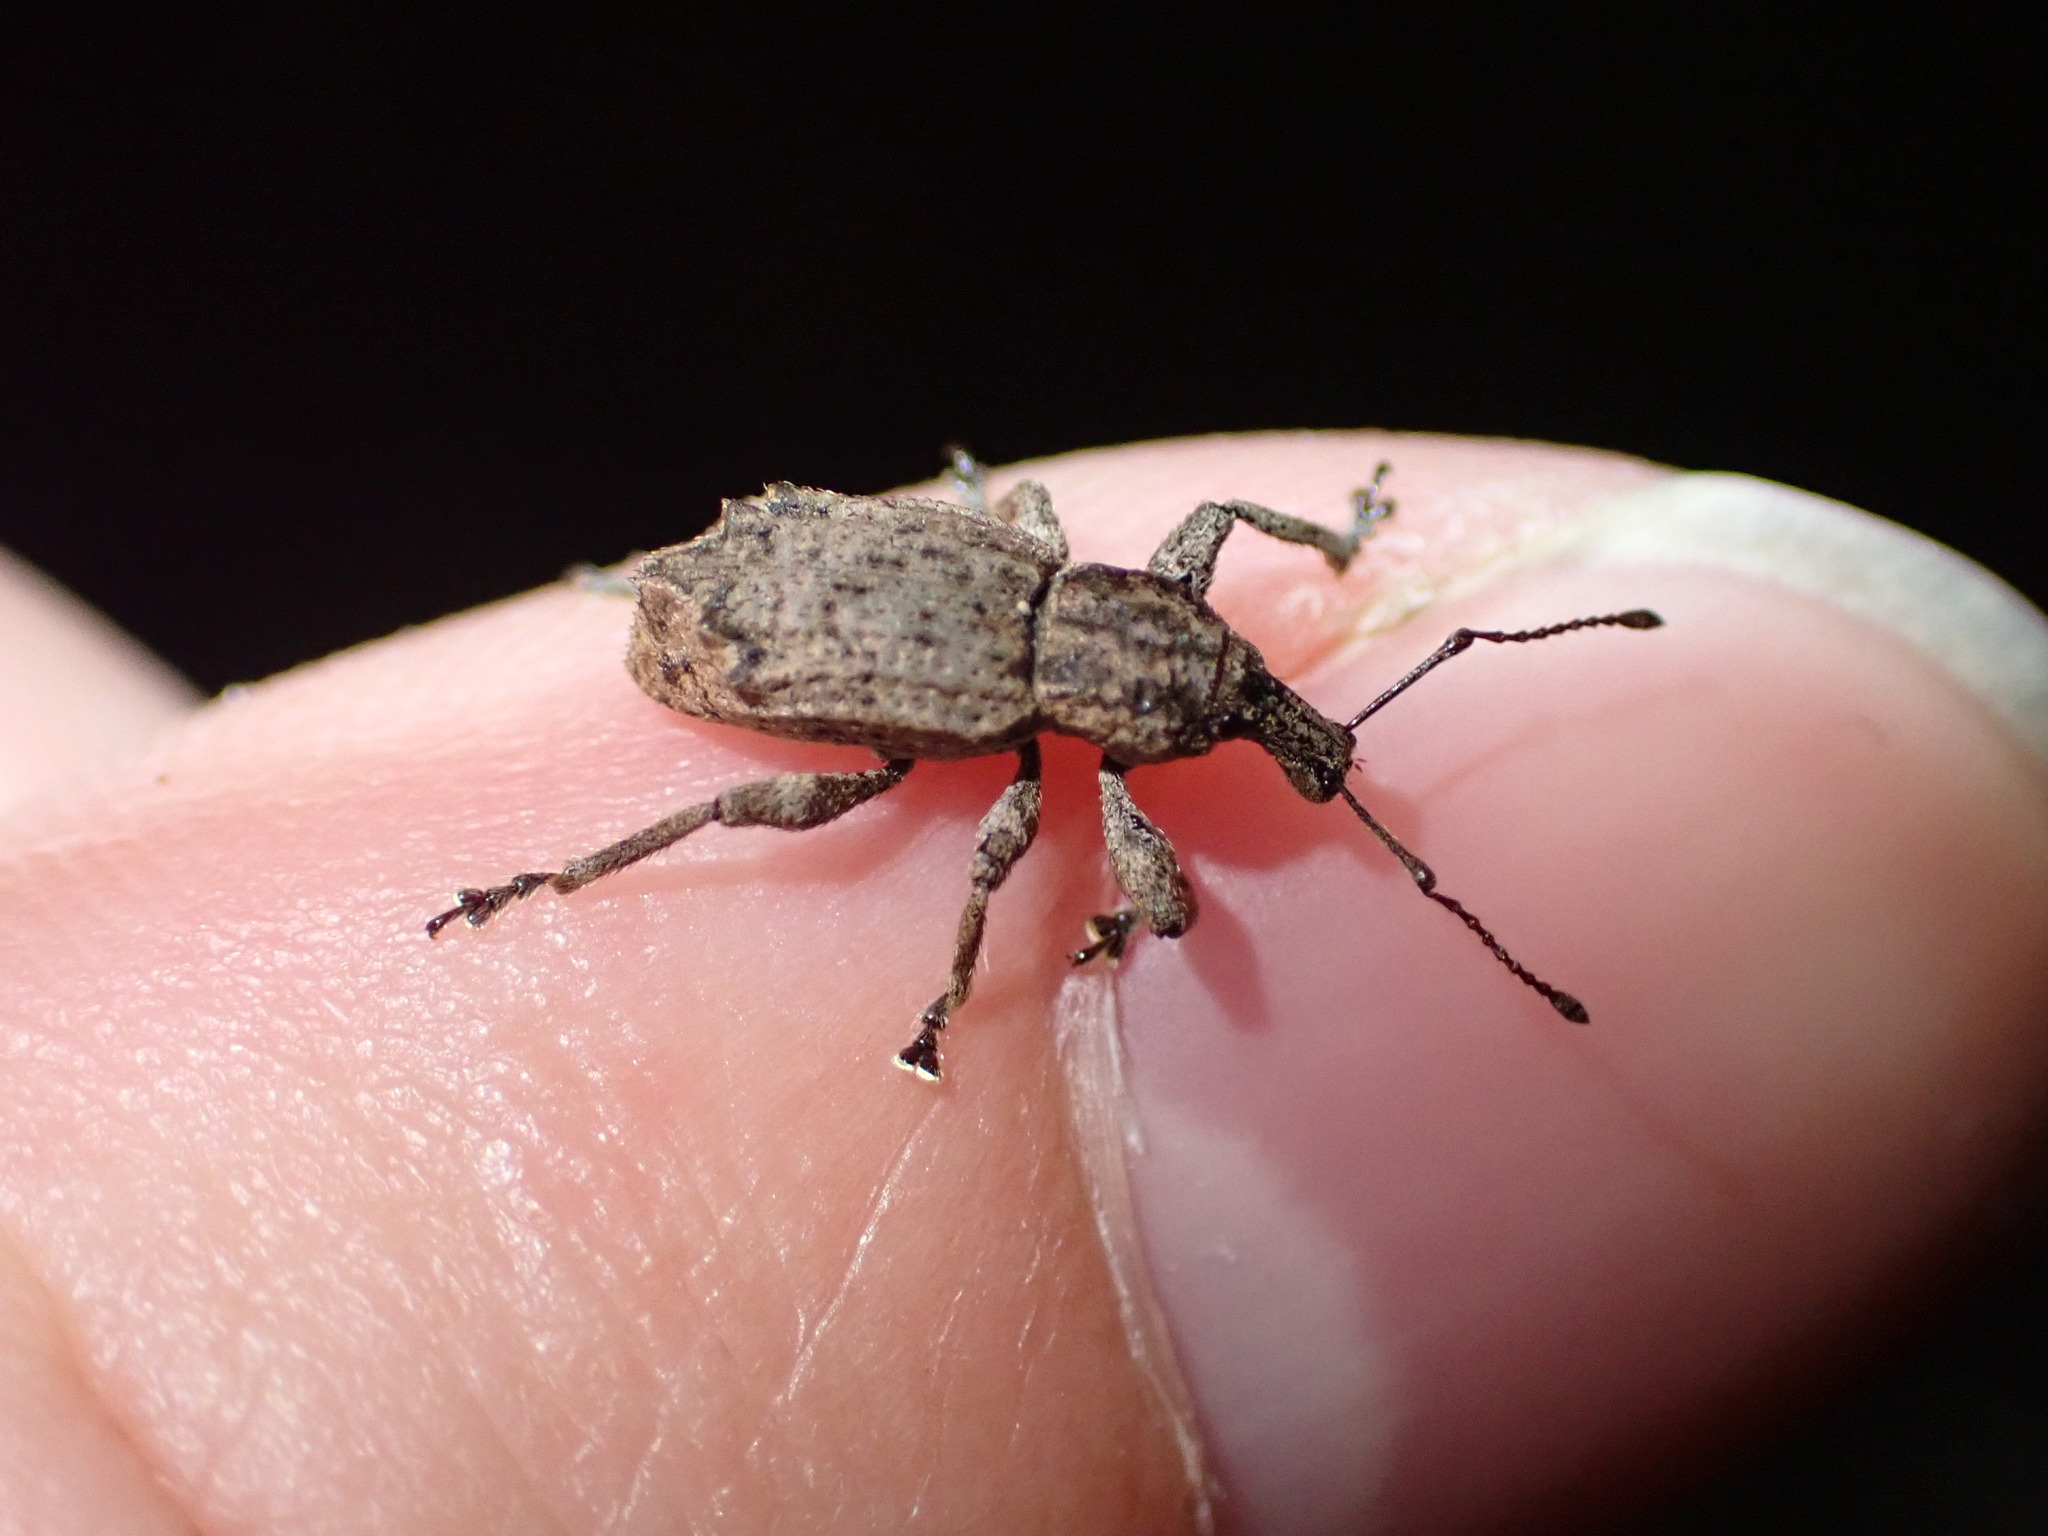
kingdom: Animalia
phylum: Arthropoda
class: Insecta
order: Coleoptera
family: Curculionidae
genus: Chalepistes
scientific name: Chalepistes rhesus
